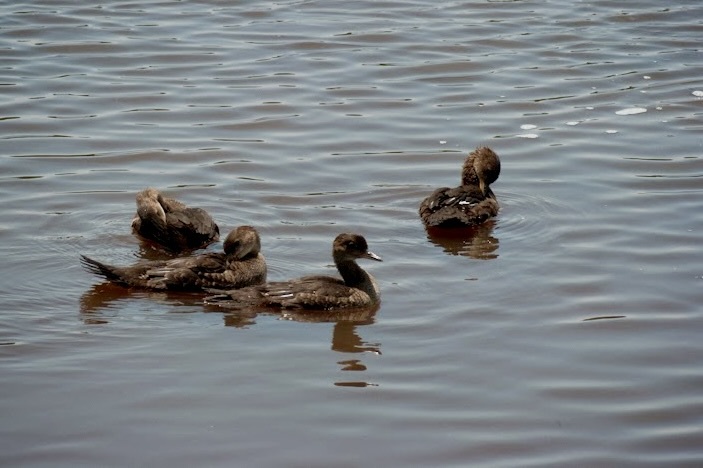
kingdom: Animalia
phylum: Chordata
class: Aves
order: Anseriformes
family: Anatidae
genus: Lophodytes
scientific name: Lophodytes cucullatus
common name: Hooded merganser
